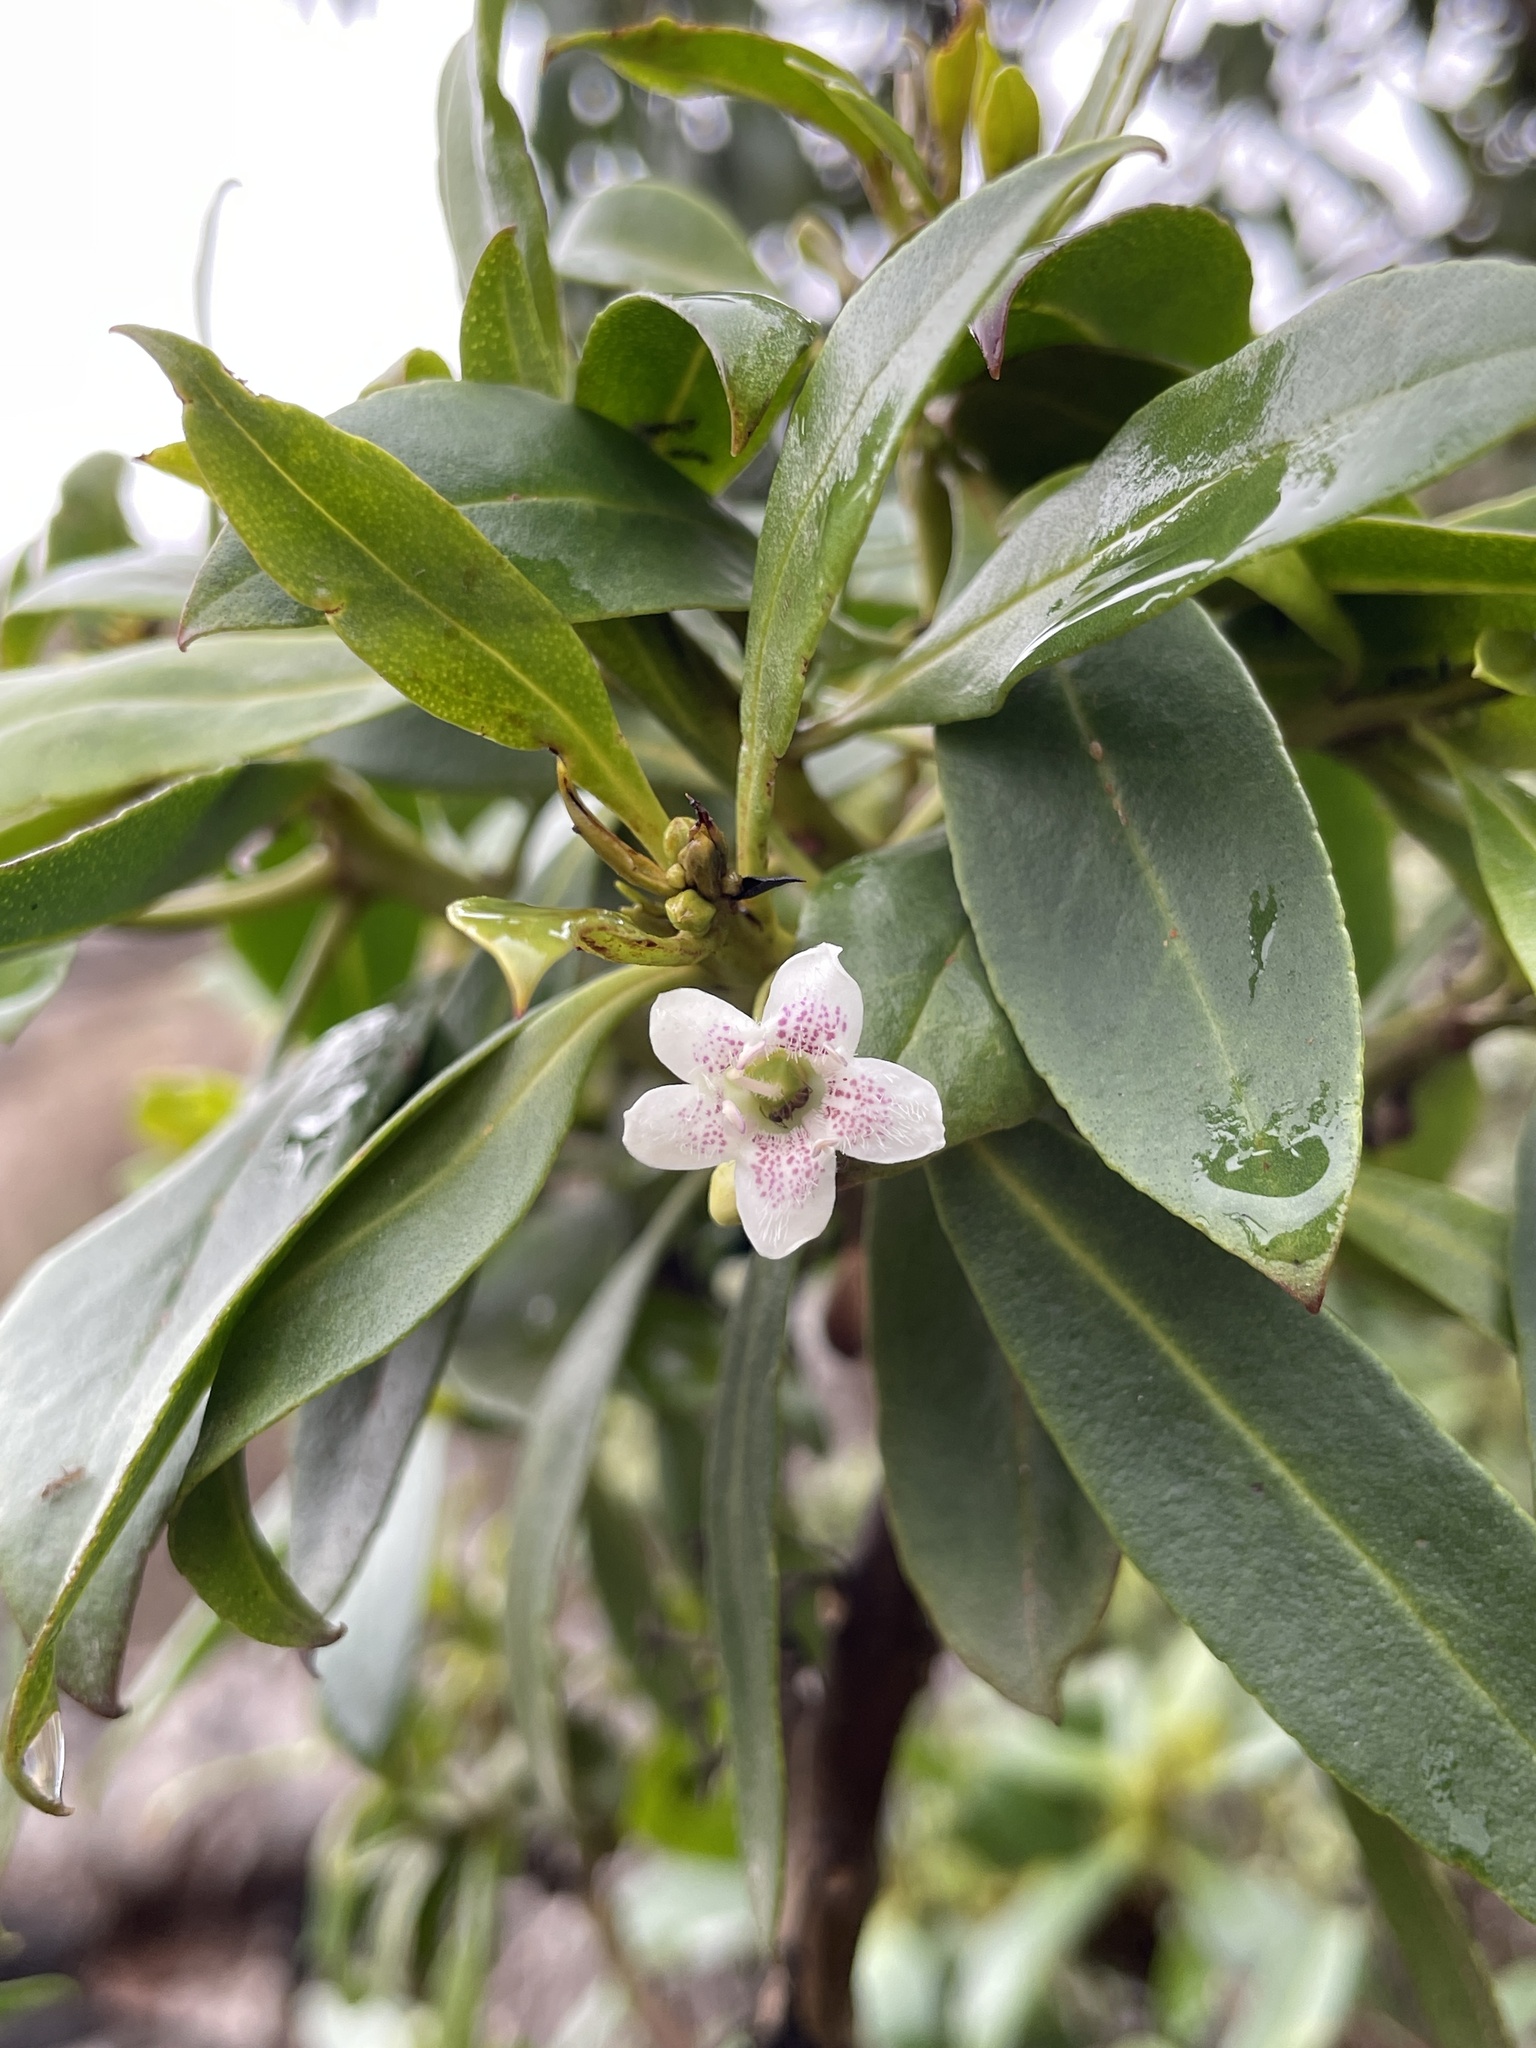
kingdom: Plantae
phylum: Tracheophyta
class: Magnoliopsida
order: Lamiales
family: Scrophulariaceae
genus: Myoporum
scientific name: Myoporum laetum
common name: Ngaio tree
